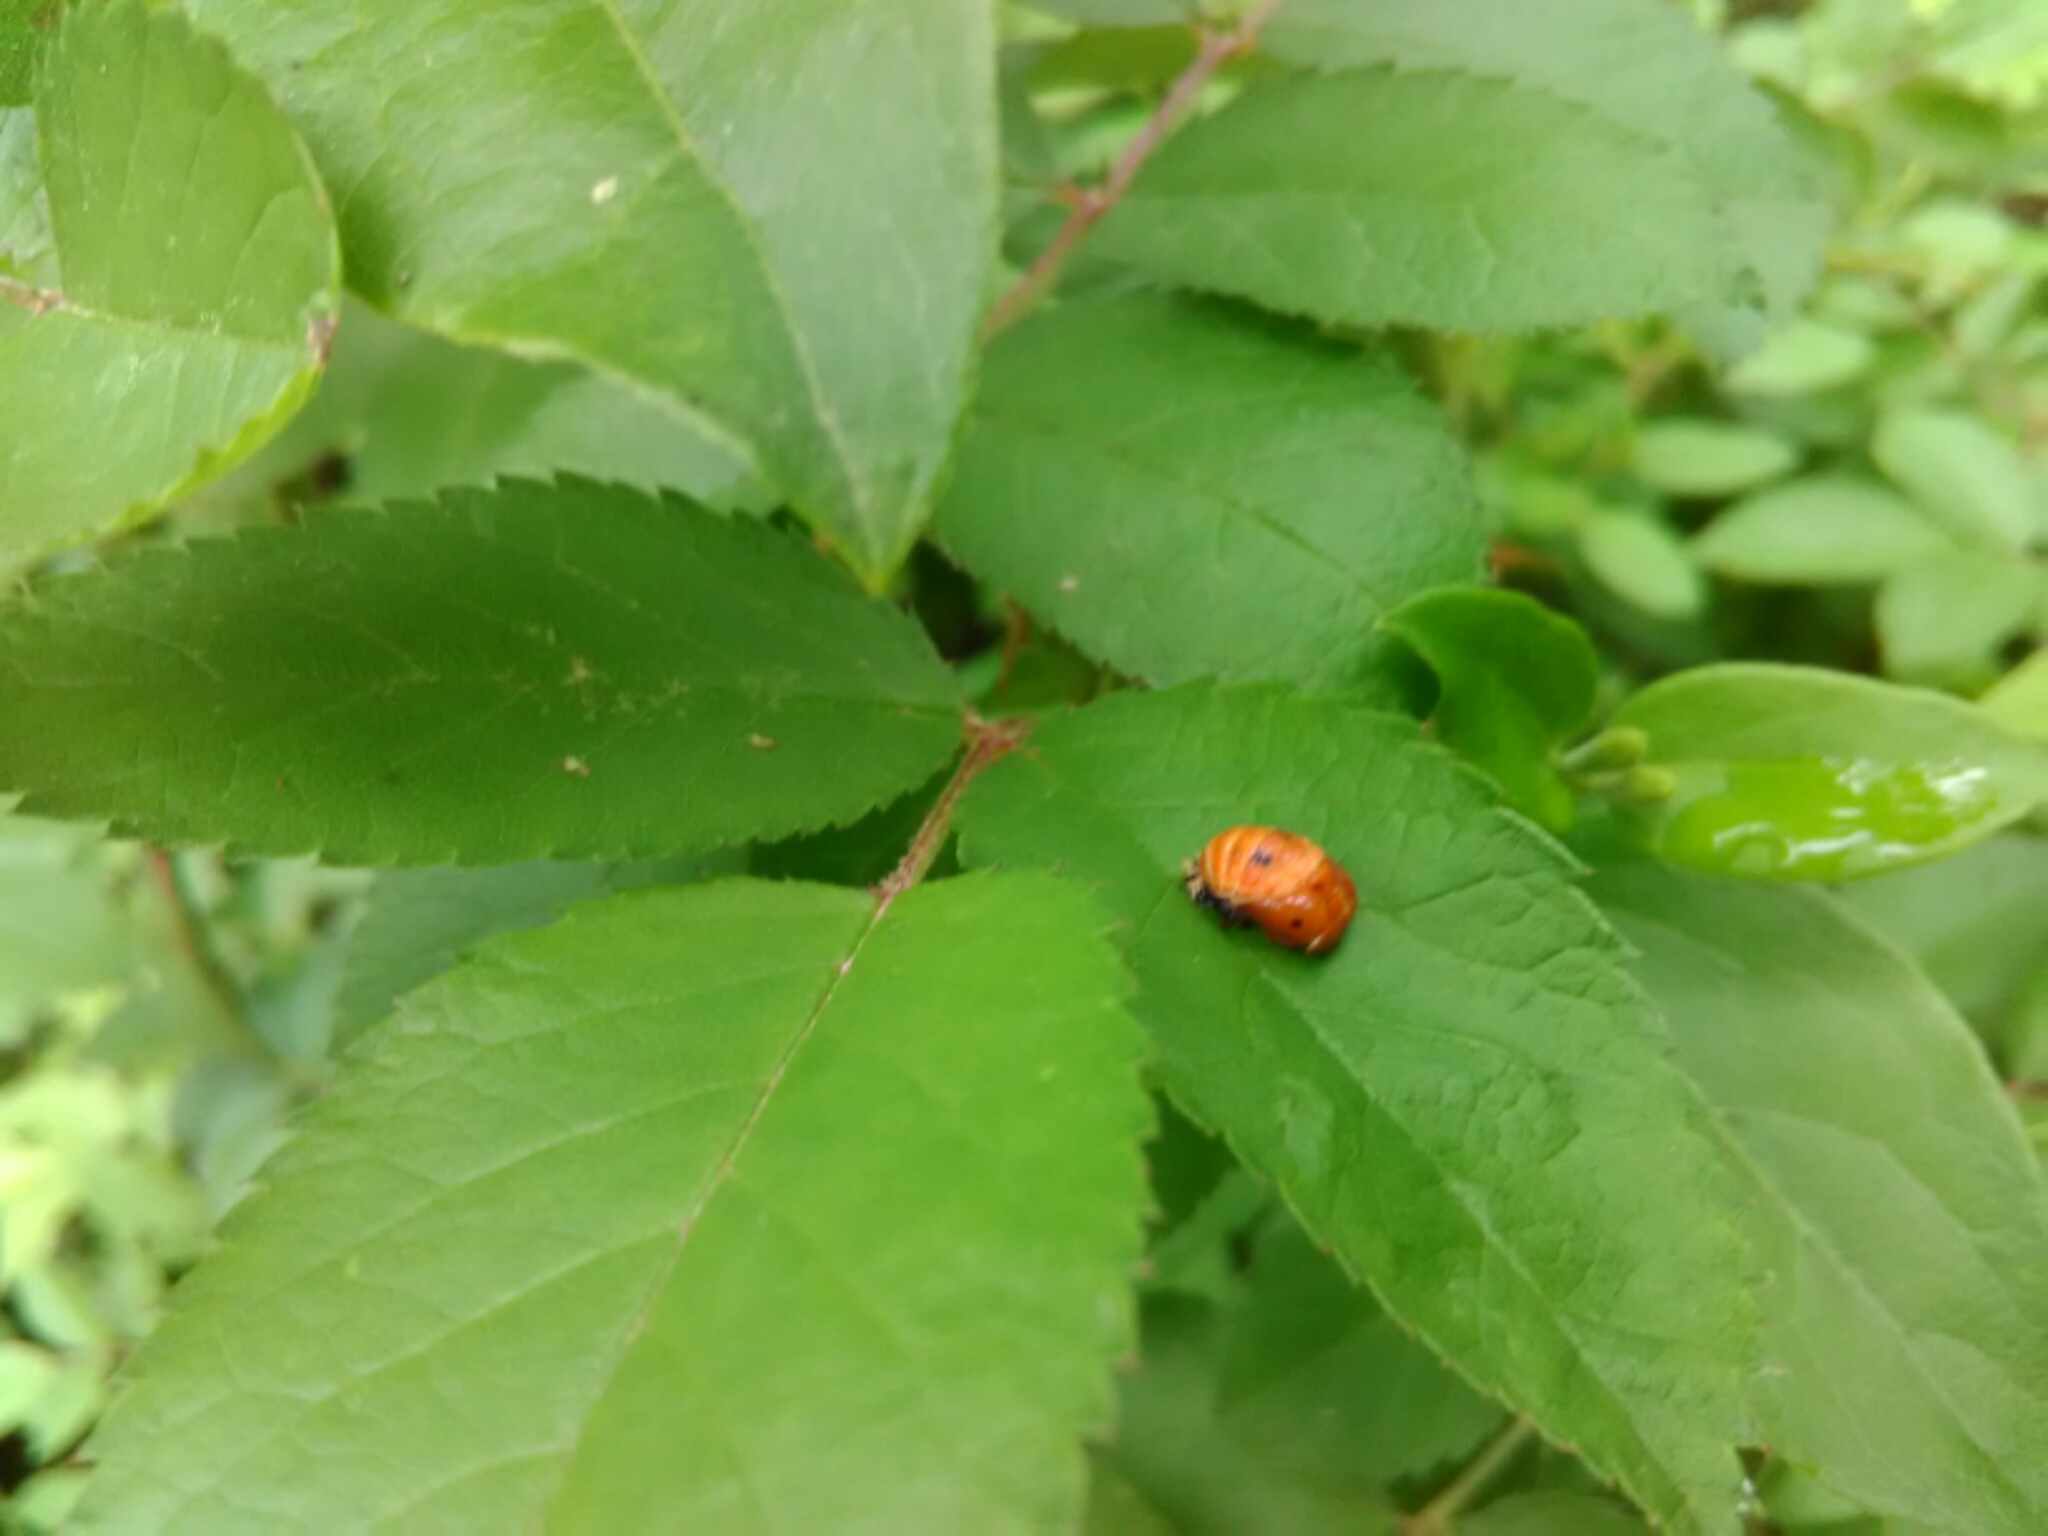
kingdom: Animalia
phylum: Arthropoda
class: Insecta
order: Coleoptera
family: Coccinellidae
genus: Coccinella
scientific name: Coccinella septempunctata
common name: Sevenspotted lady beetle
